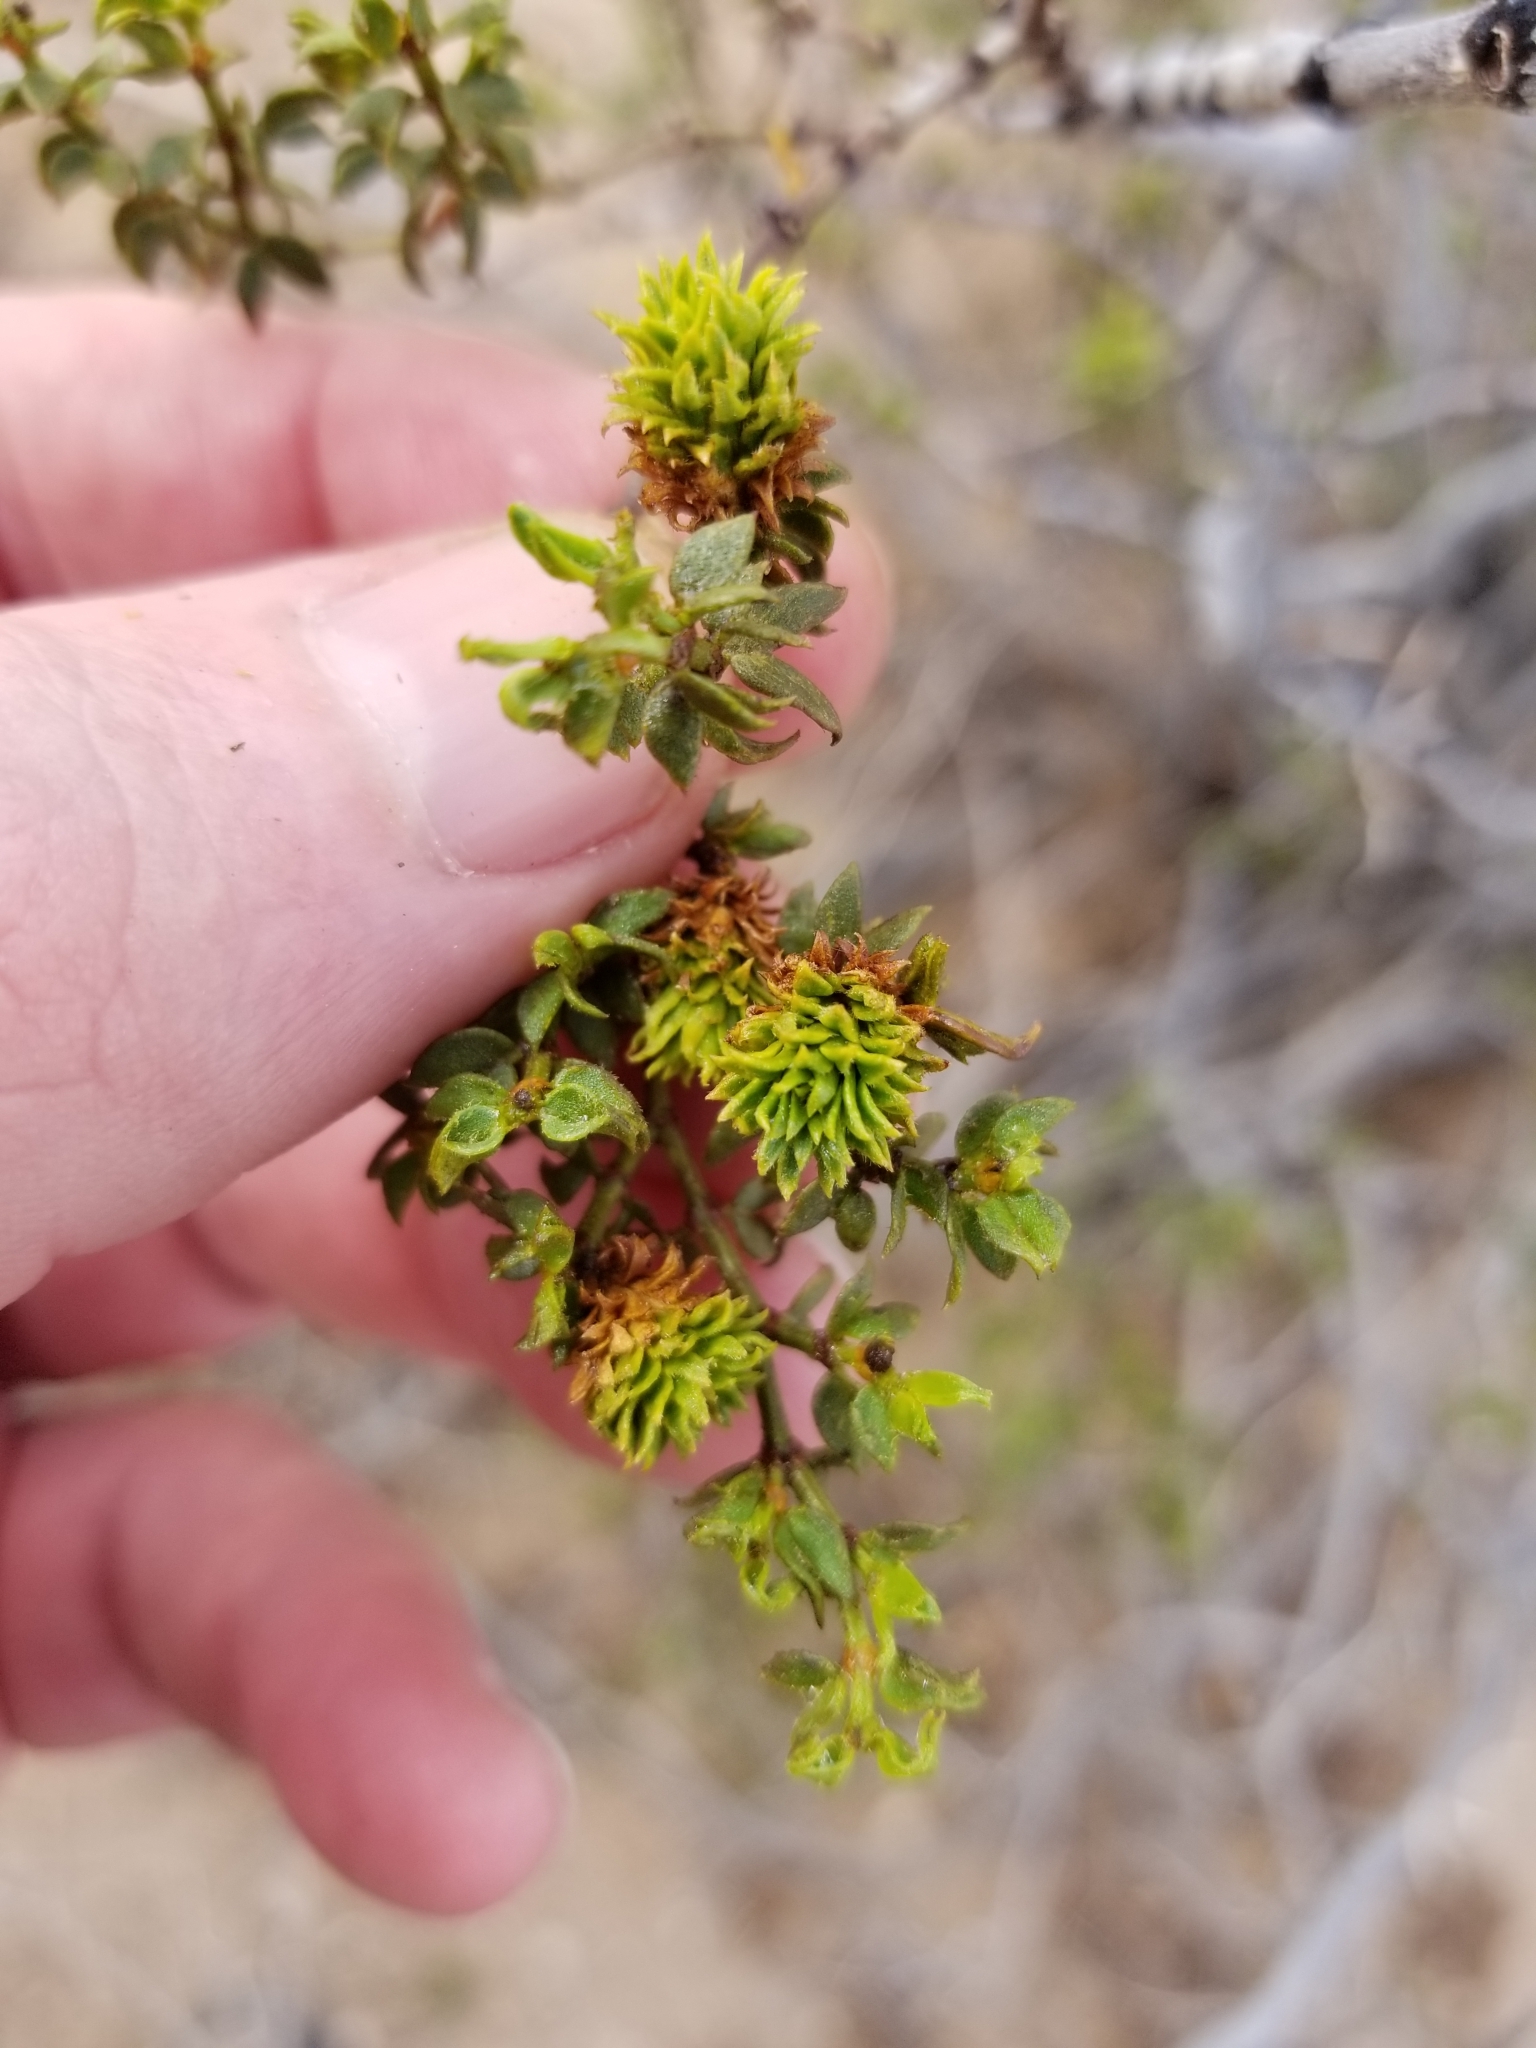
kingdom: Animalia
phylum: Arthropoda
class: Insecta
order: Diptera
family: Cecidomyiidae
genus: Asphondylia
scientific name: Asphondylia rosetta
